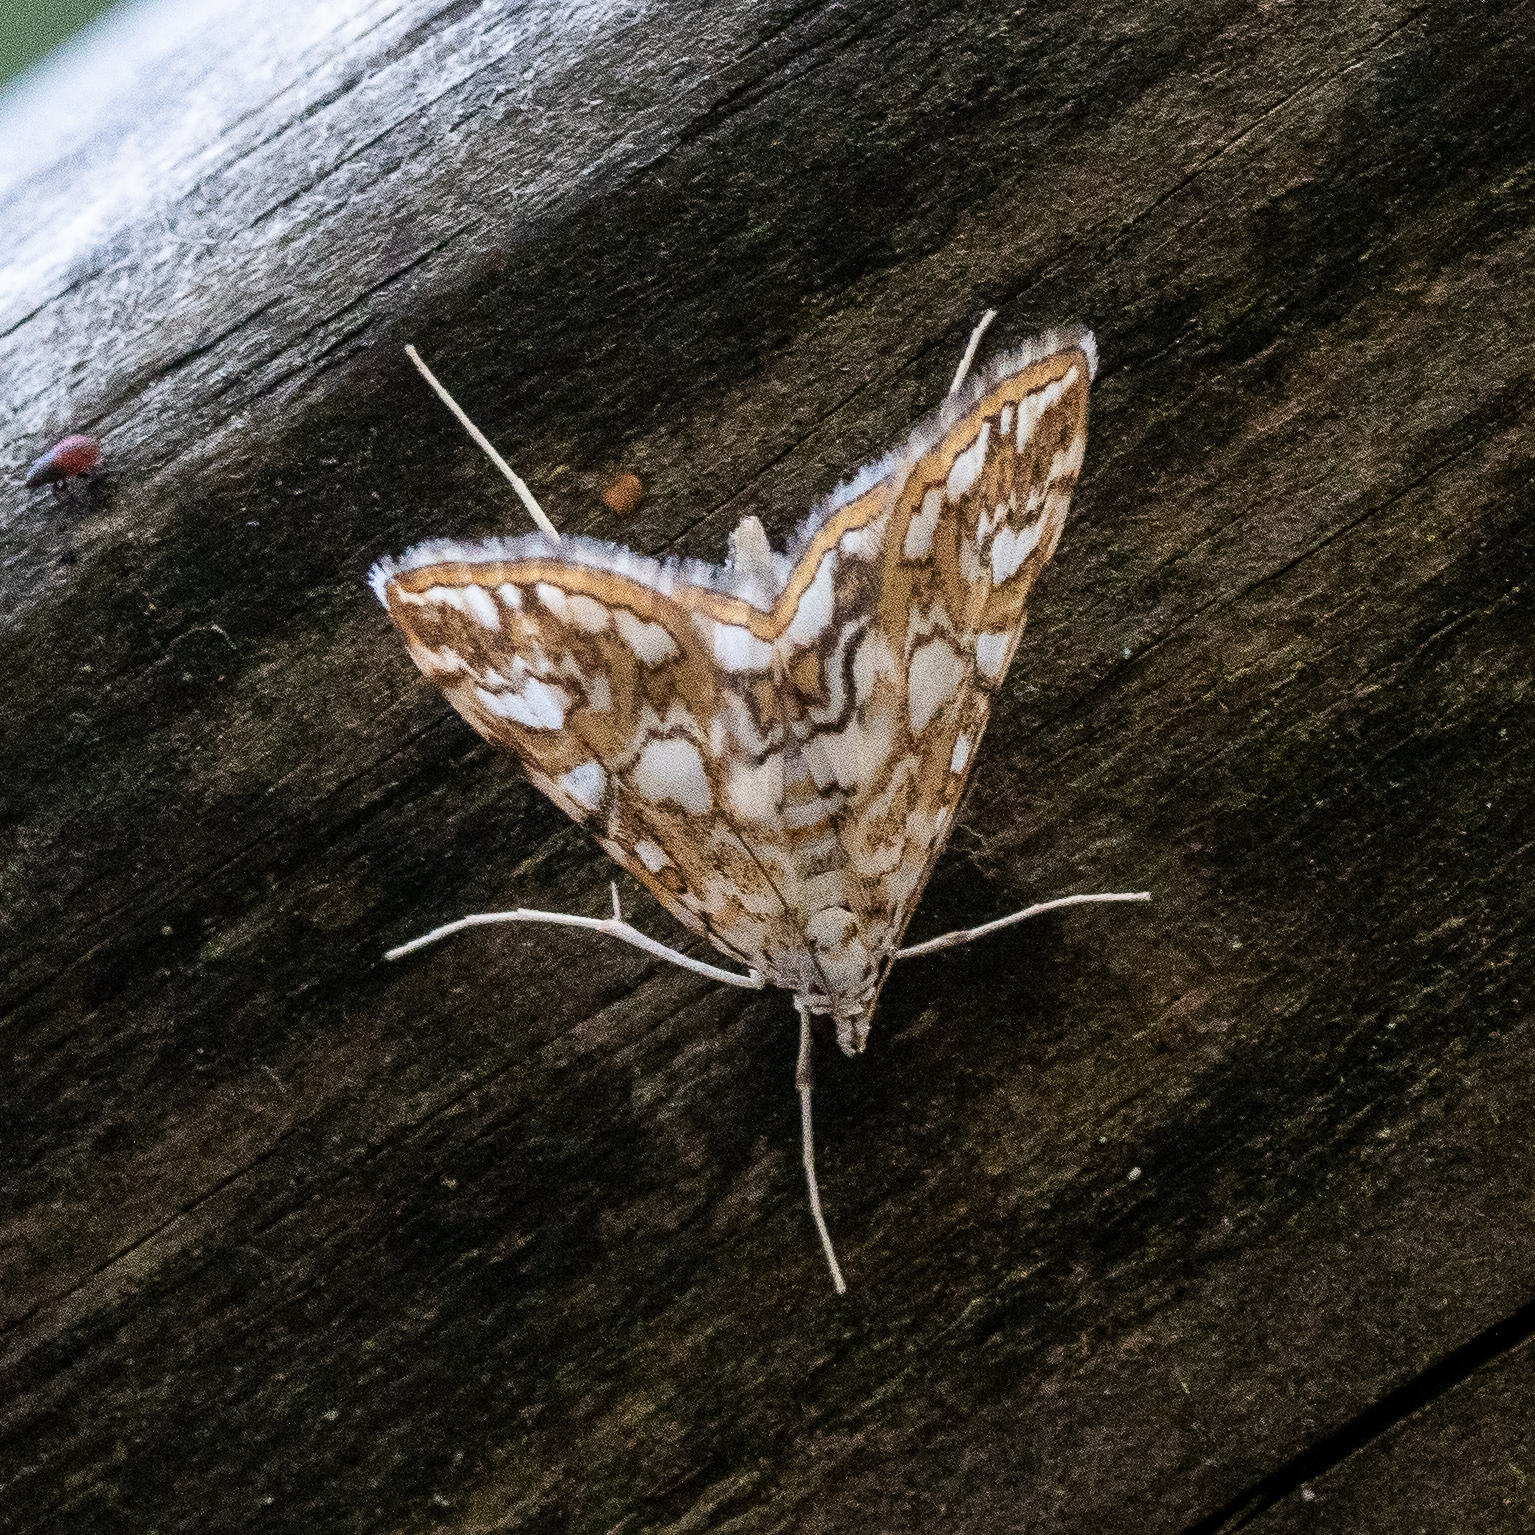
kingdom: Animalia
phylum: Arthropoda
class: Insecta
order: Lepidoptera
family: Crambidae
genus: Elophila
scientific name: Elophila nymphaeata
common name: Brown china-mark
